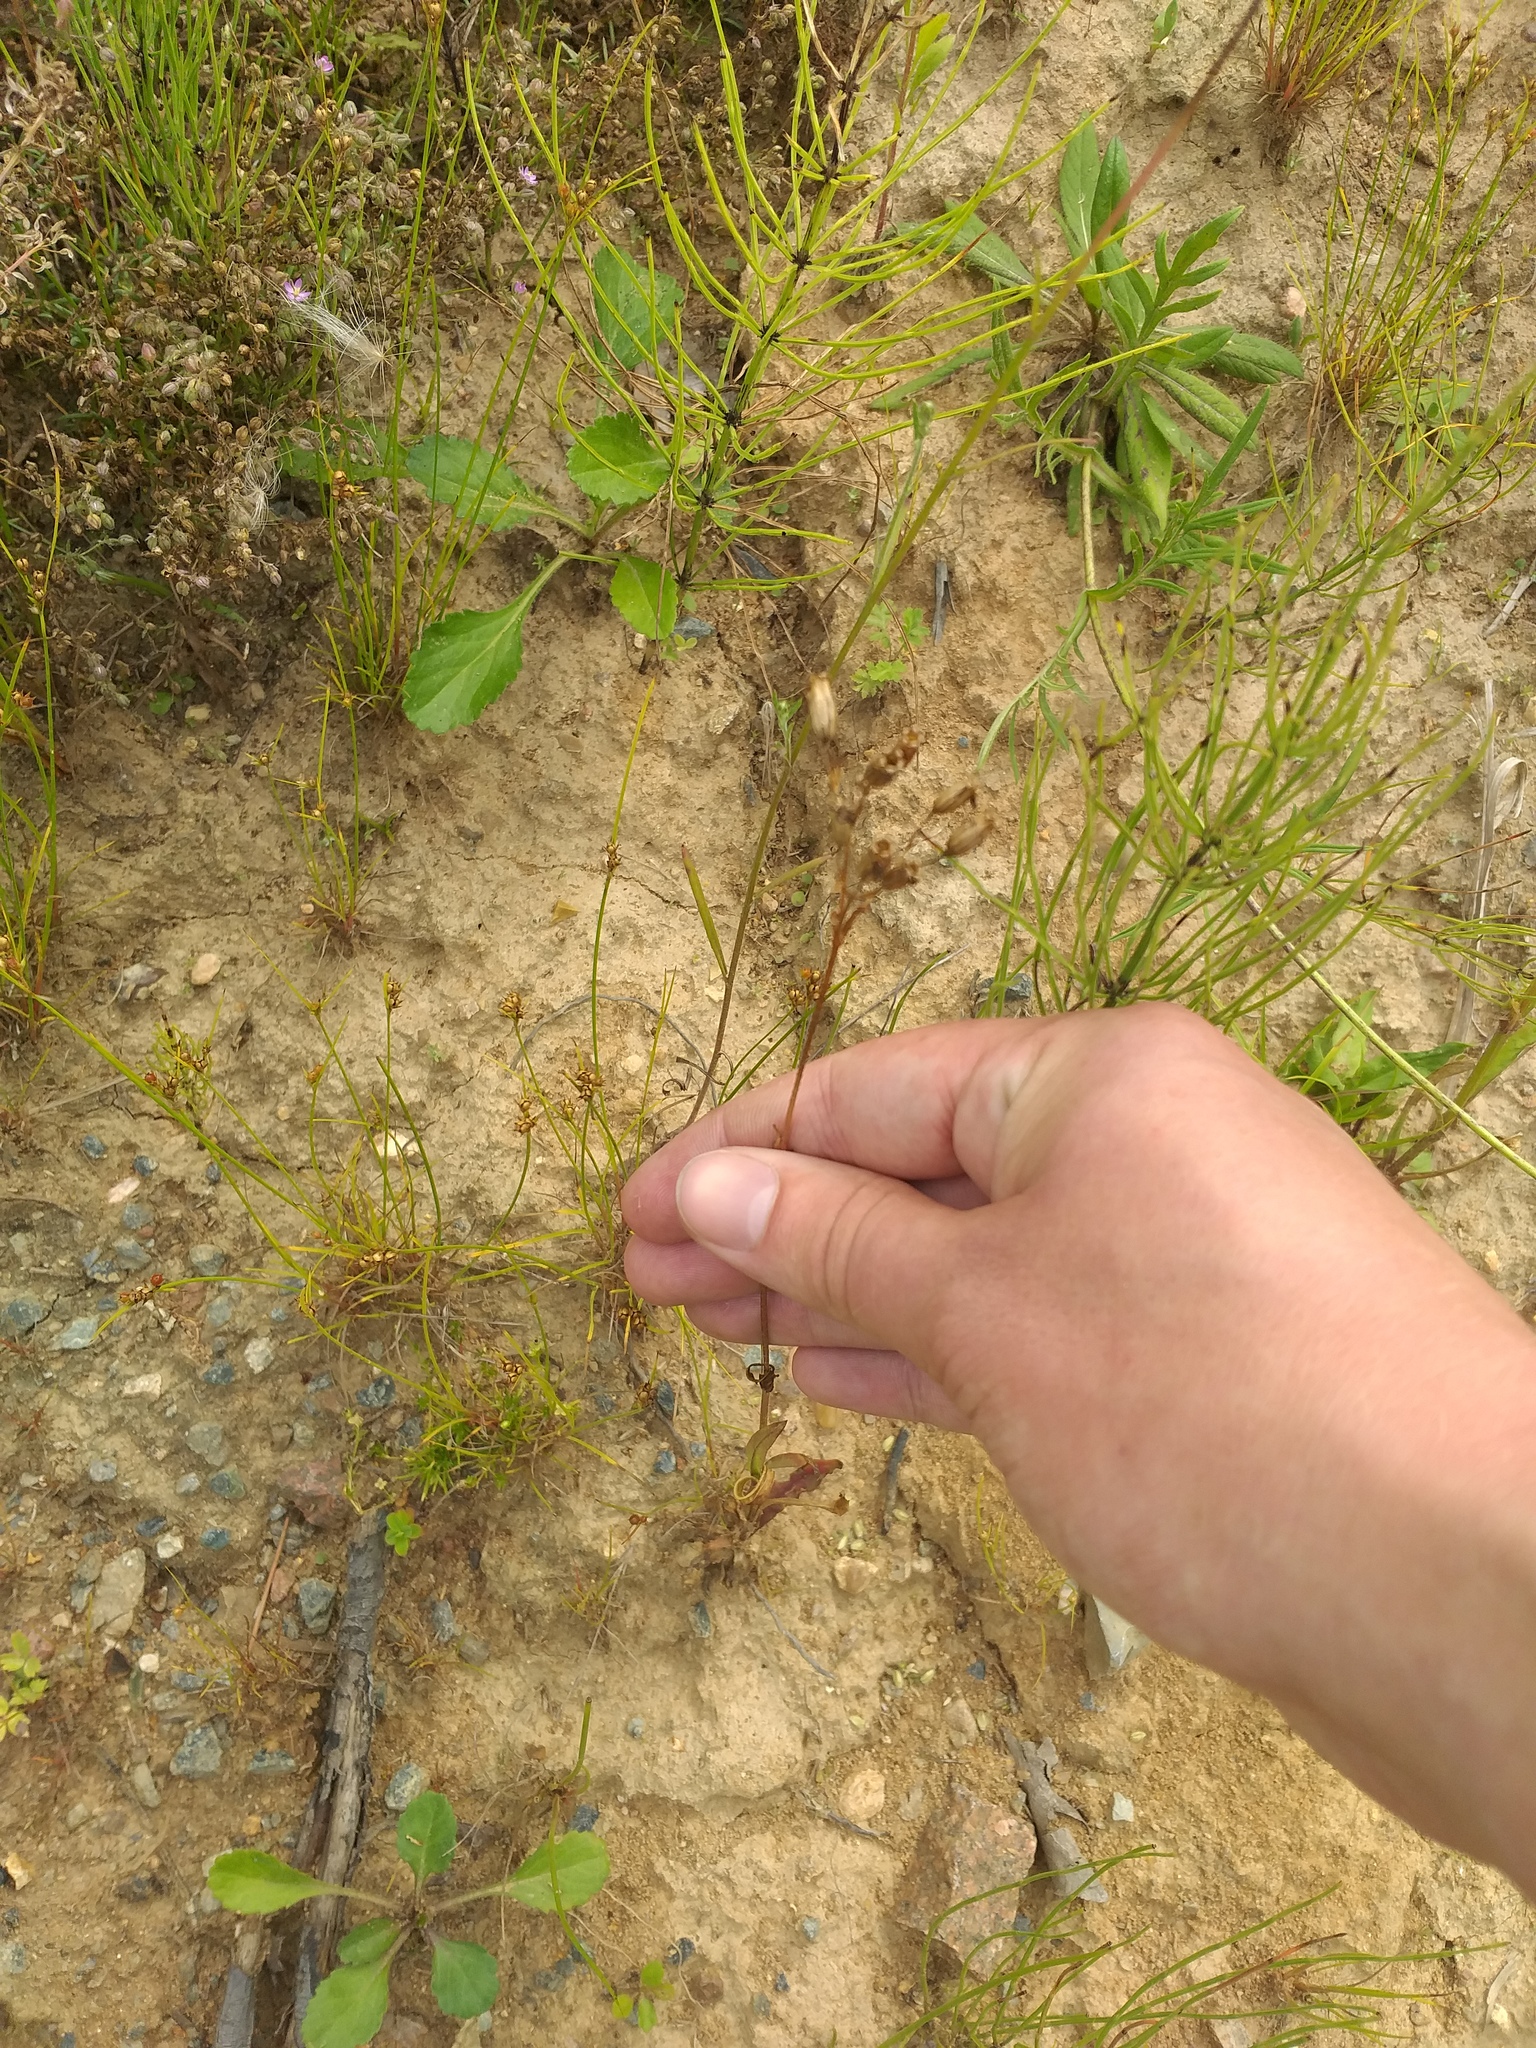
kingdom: Plantae
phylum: Tracheophyta
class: Magnoliopsida
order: Caryophyllales
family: Caryophyllaceae
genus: Silene
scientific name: Silene flos-cuculi
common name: Ragged-robin
